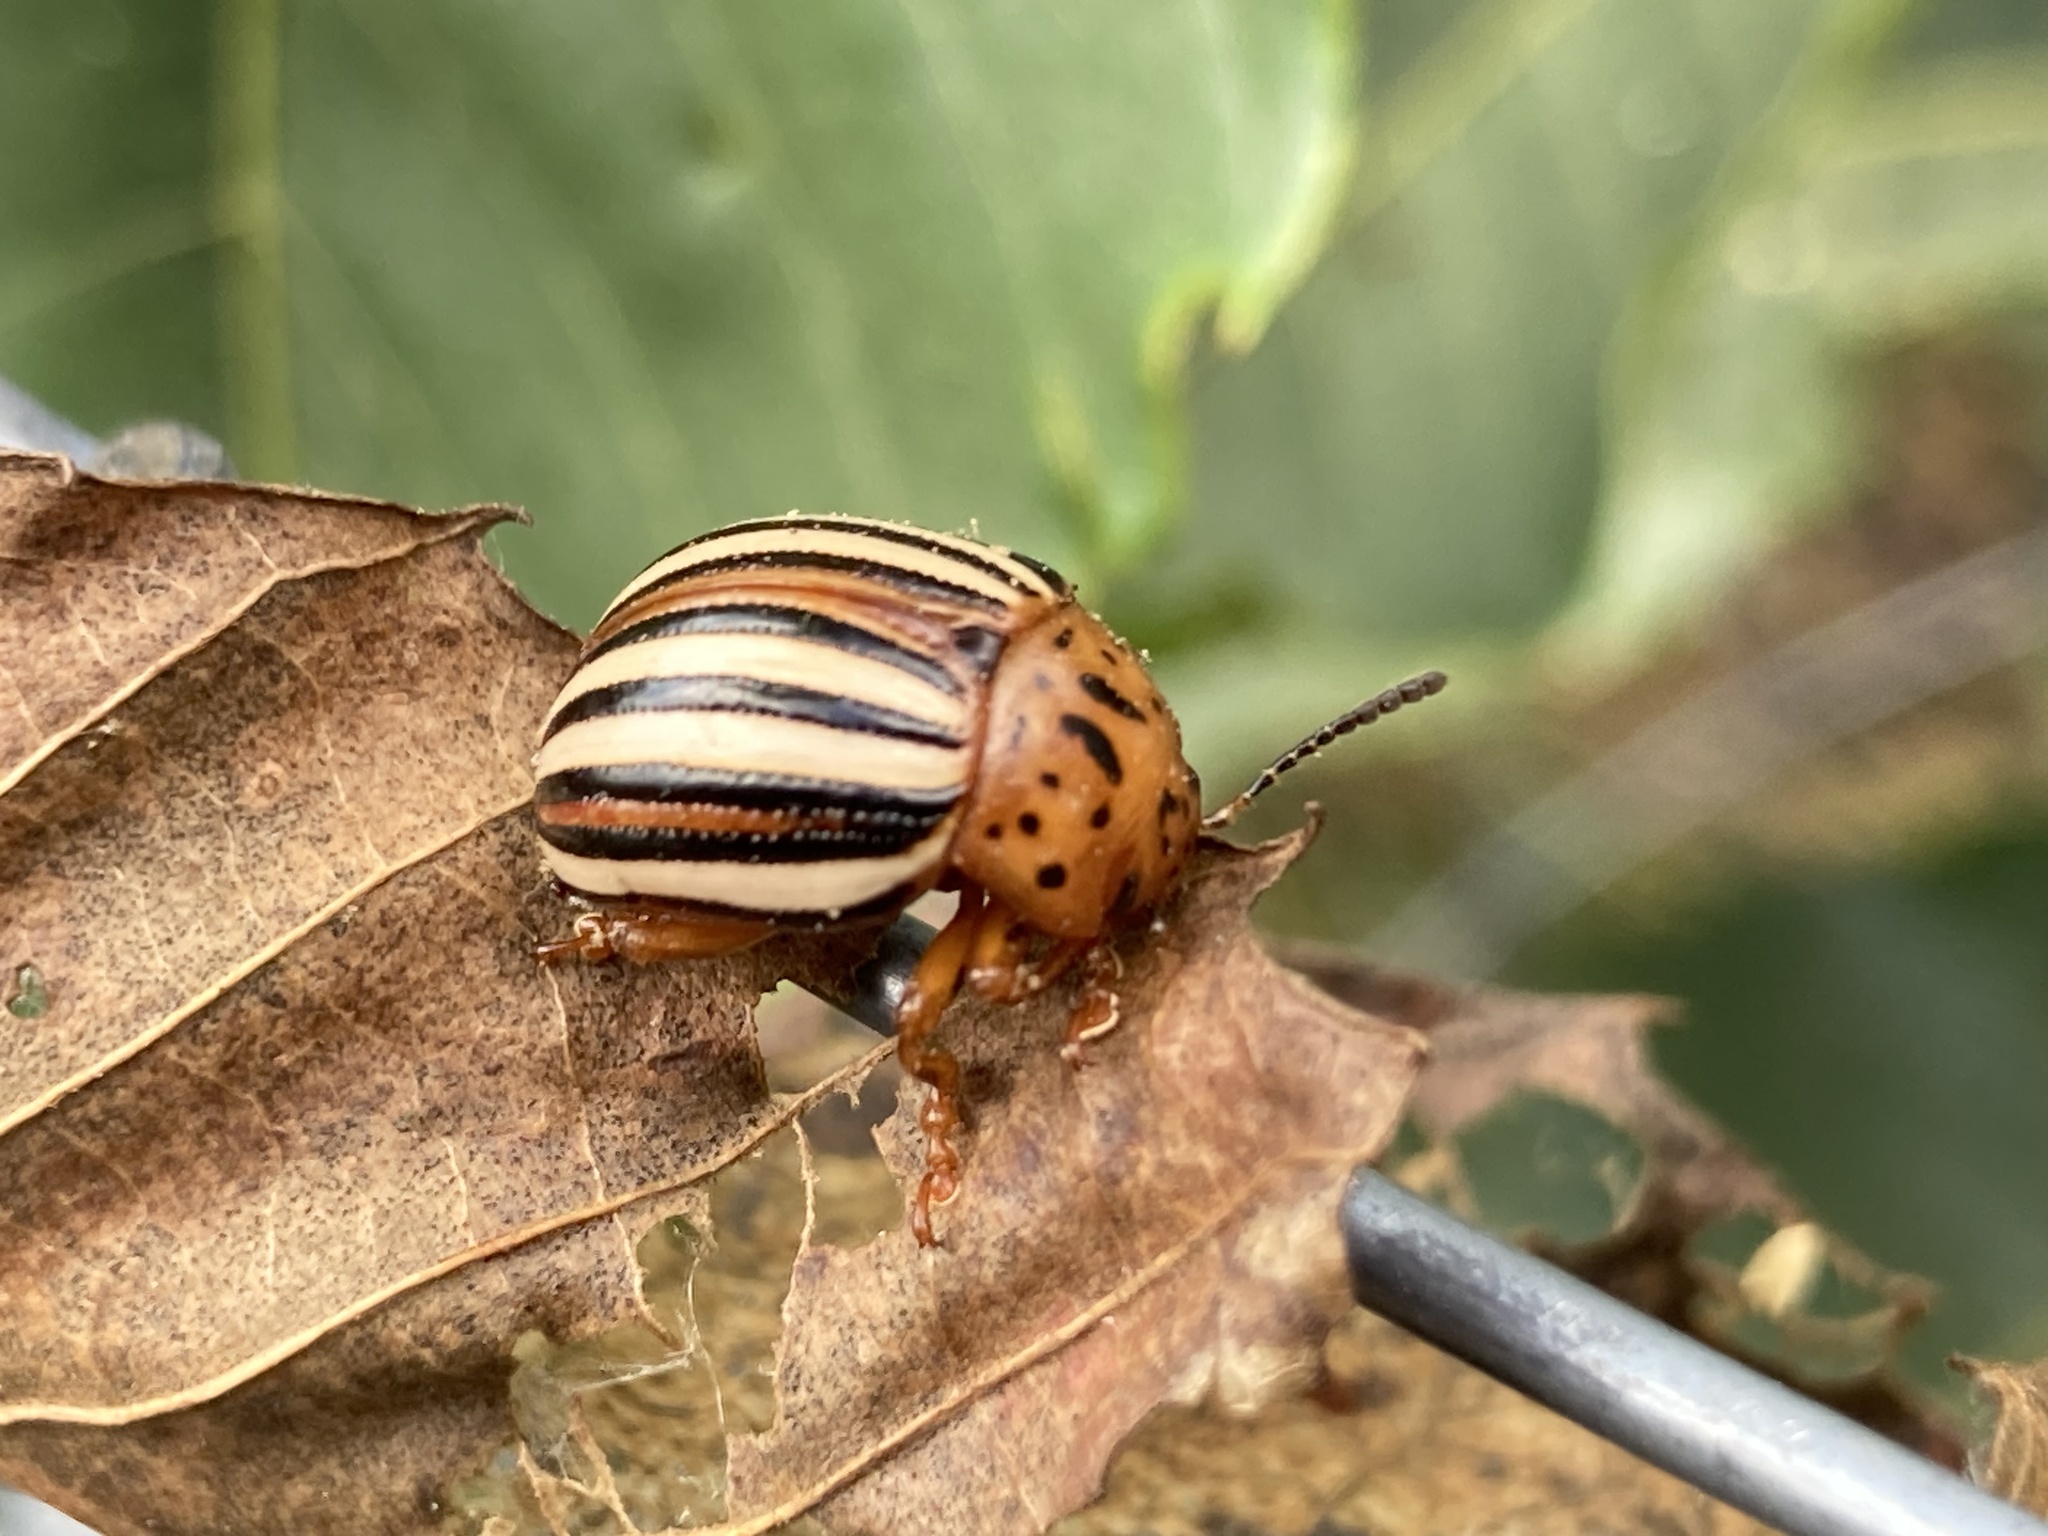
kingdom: Animalia
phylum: Arthropoda
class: Insecta
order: Coleoptera
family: Chrysomelidae
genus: Leptinotarsa
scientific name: Leptinotarsa juncta
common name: False potato beetle
